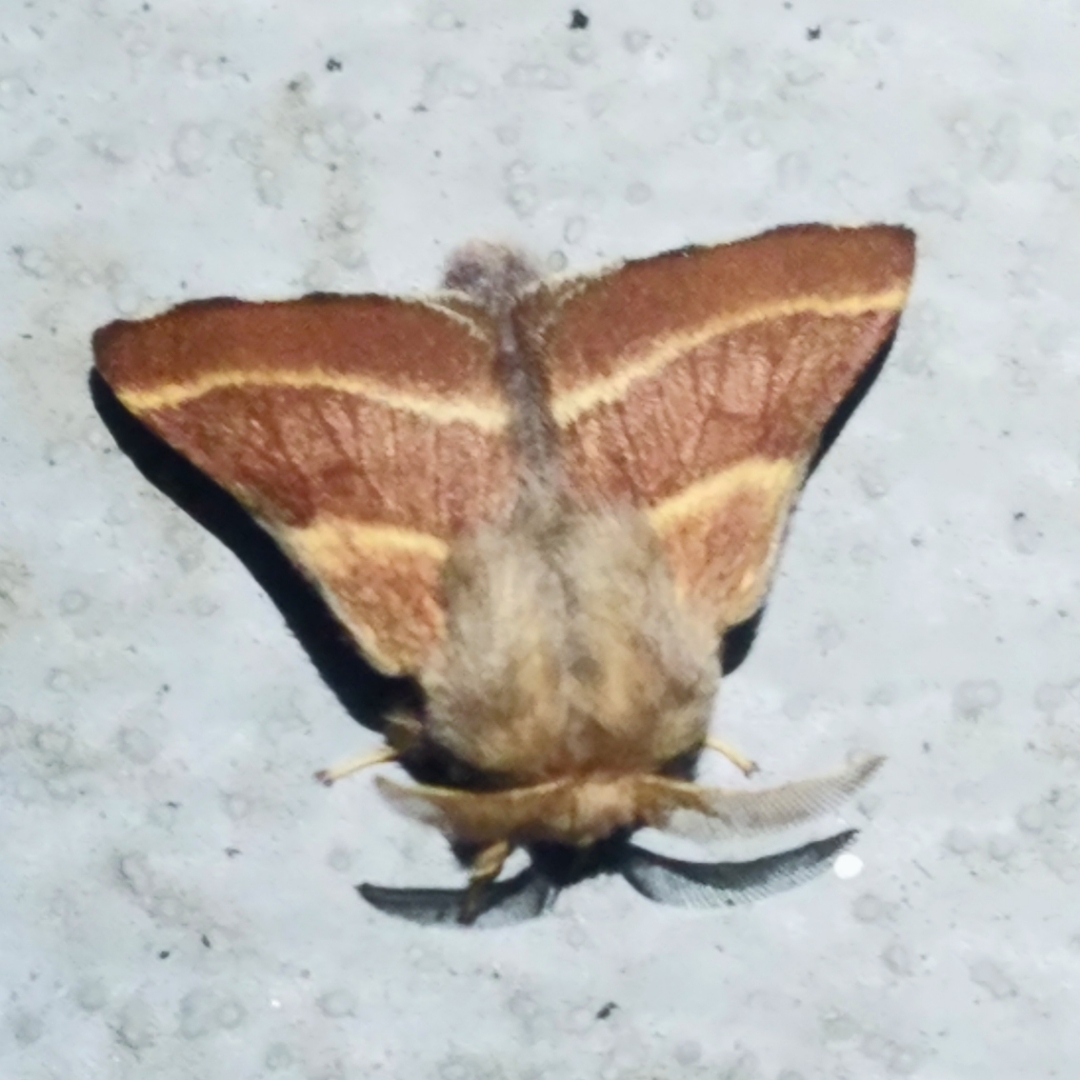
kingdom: Animalia
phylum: Arthropoda
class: Insecta
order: Lepidoptera
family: Lasiocampidae
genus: Malacosoma
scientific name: Malacosoma californica
